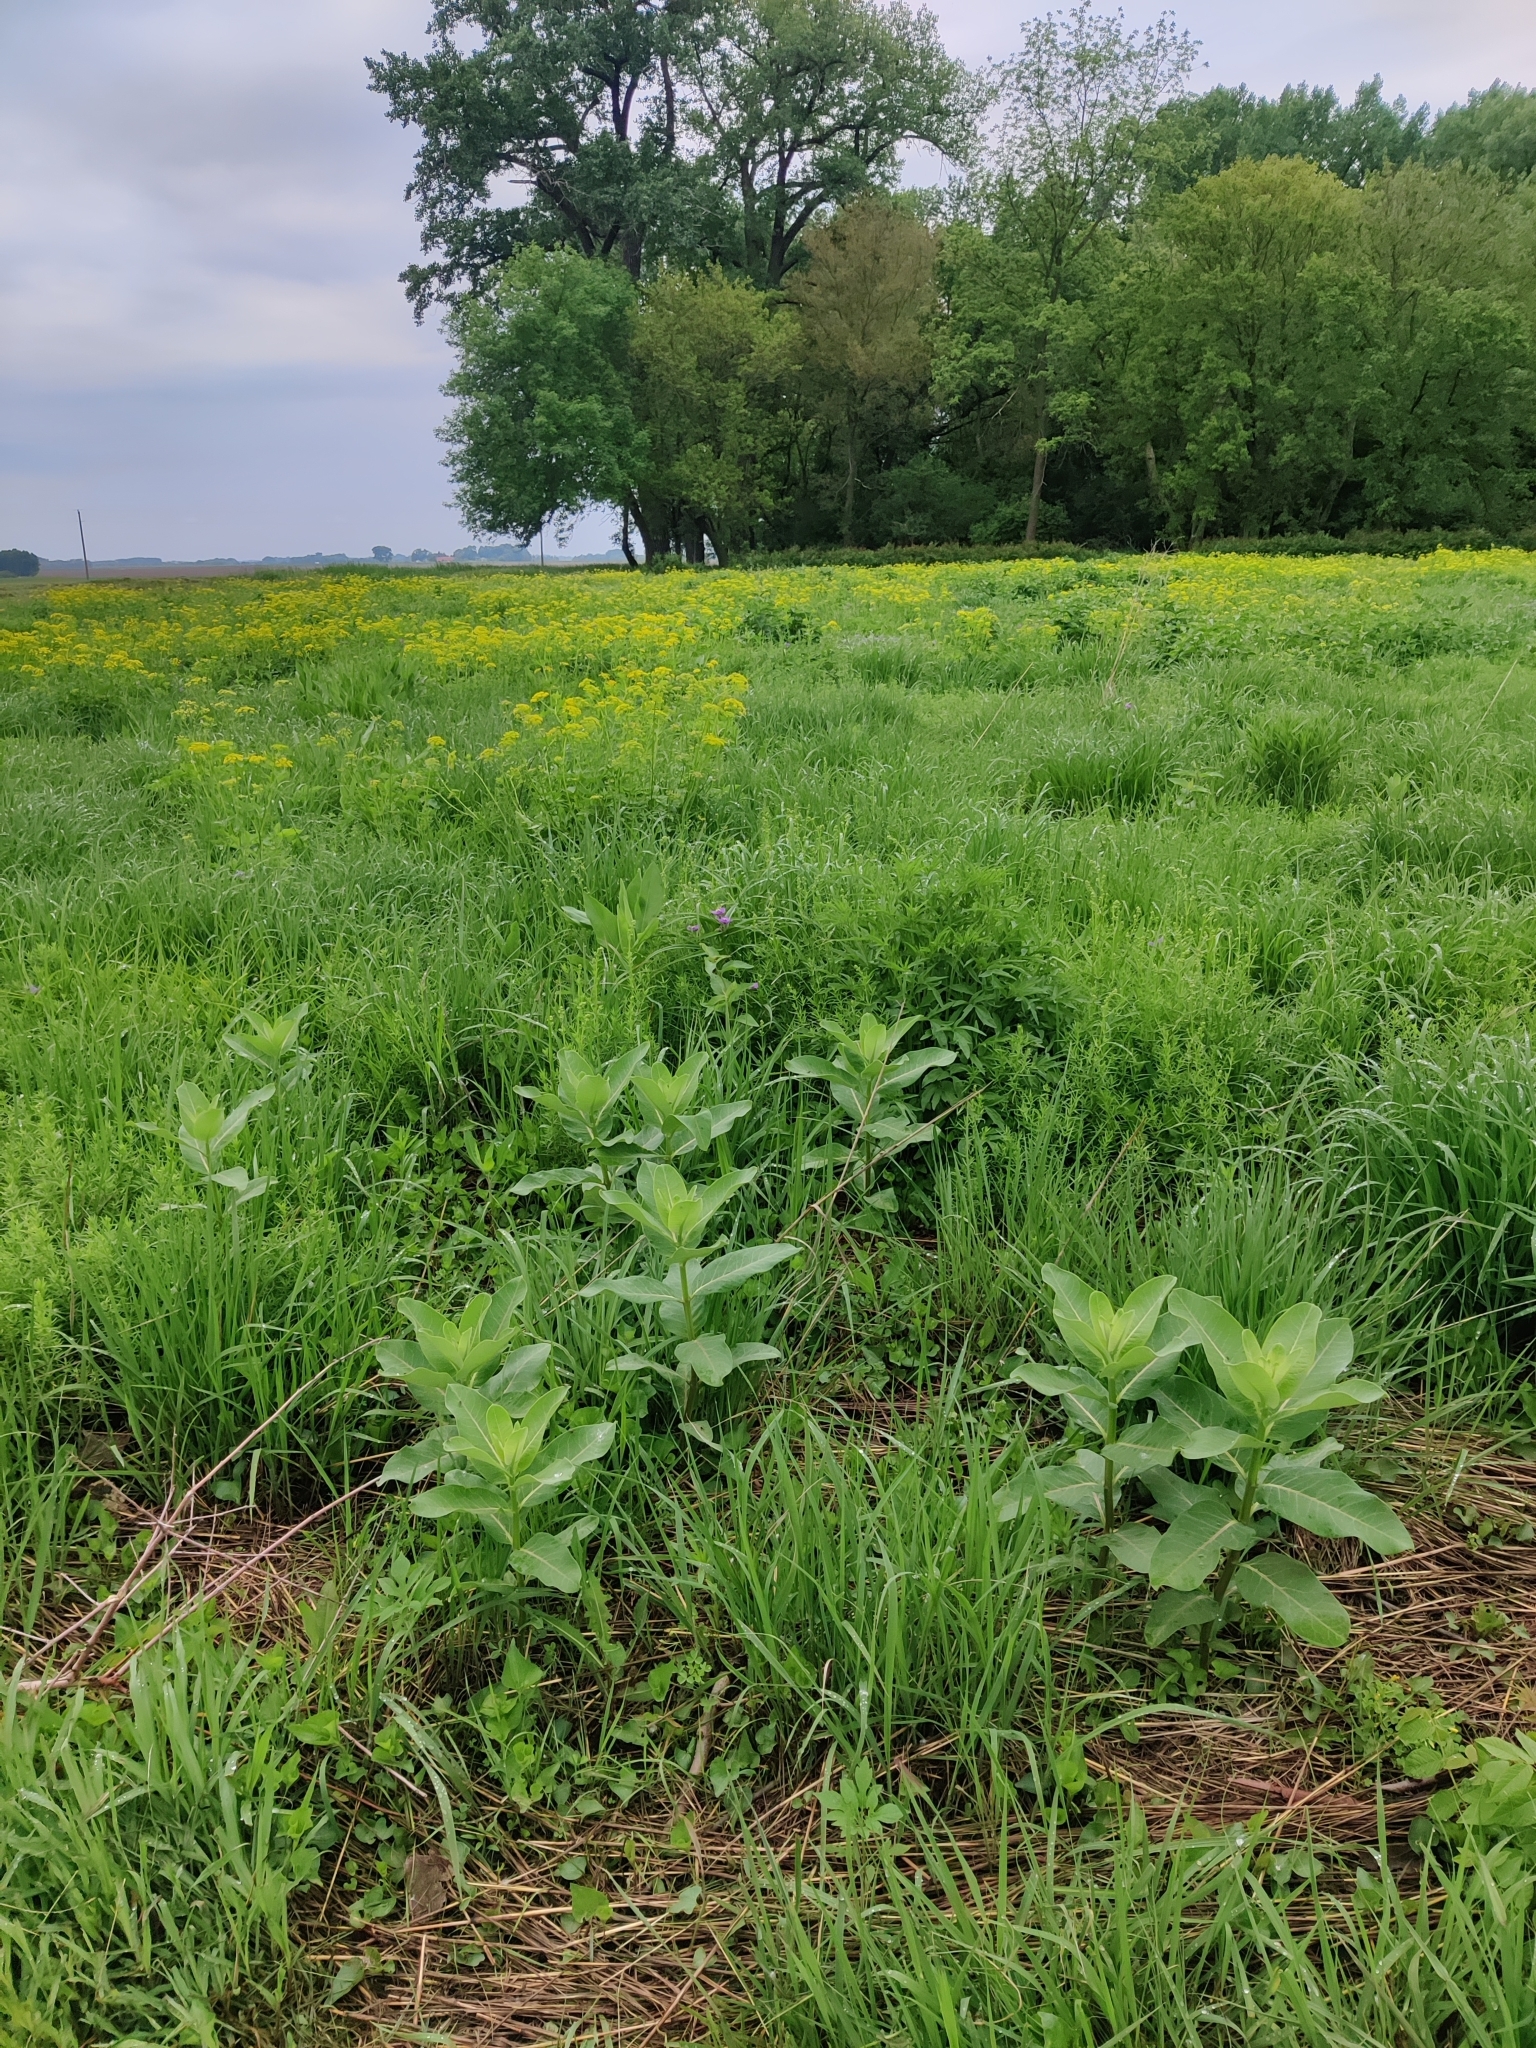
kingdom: Plantae
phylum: Tracheophyta
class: Magnoliopsida
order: Gentianales
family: Apocynaceae
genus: Asclepias
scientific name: Asclepias syriaca
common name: Common milkweed
